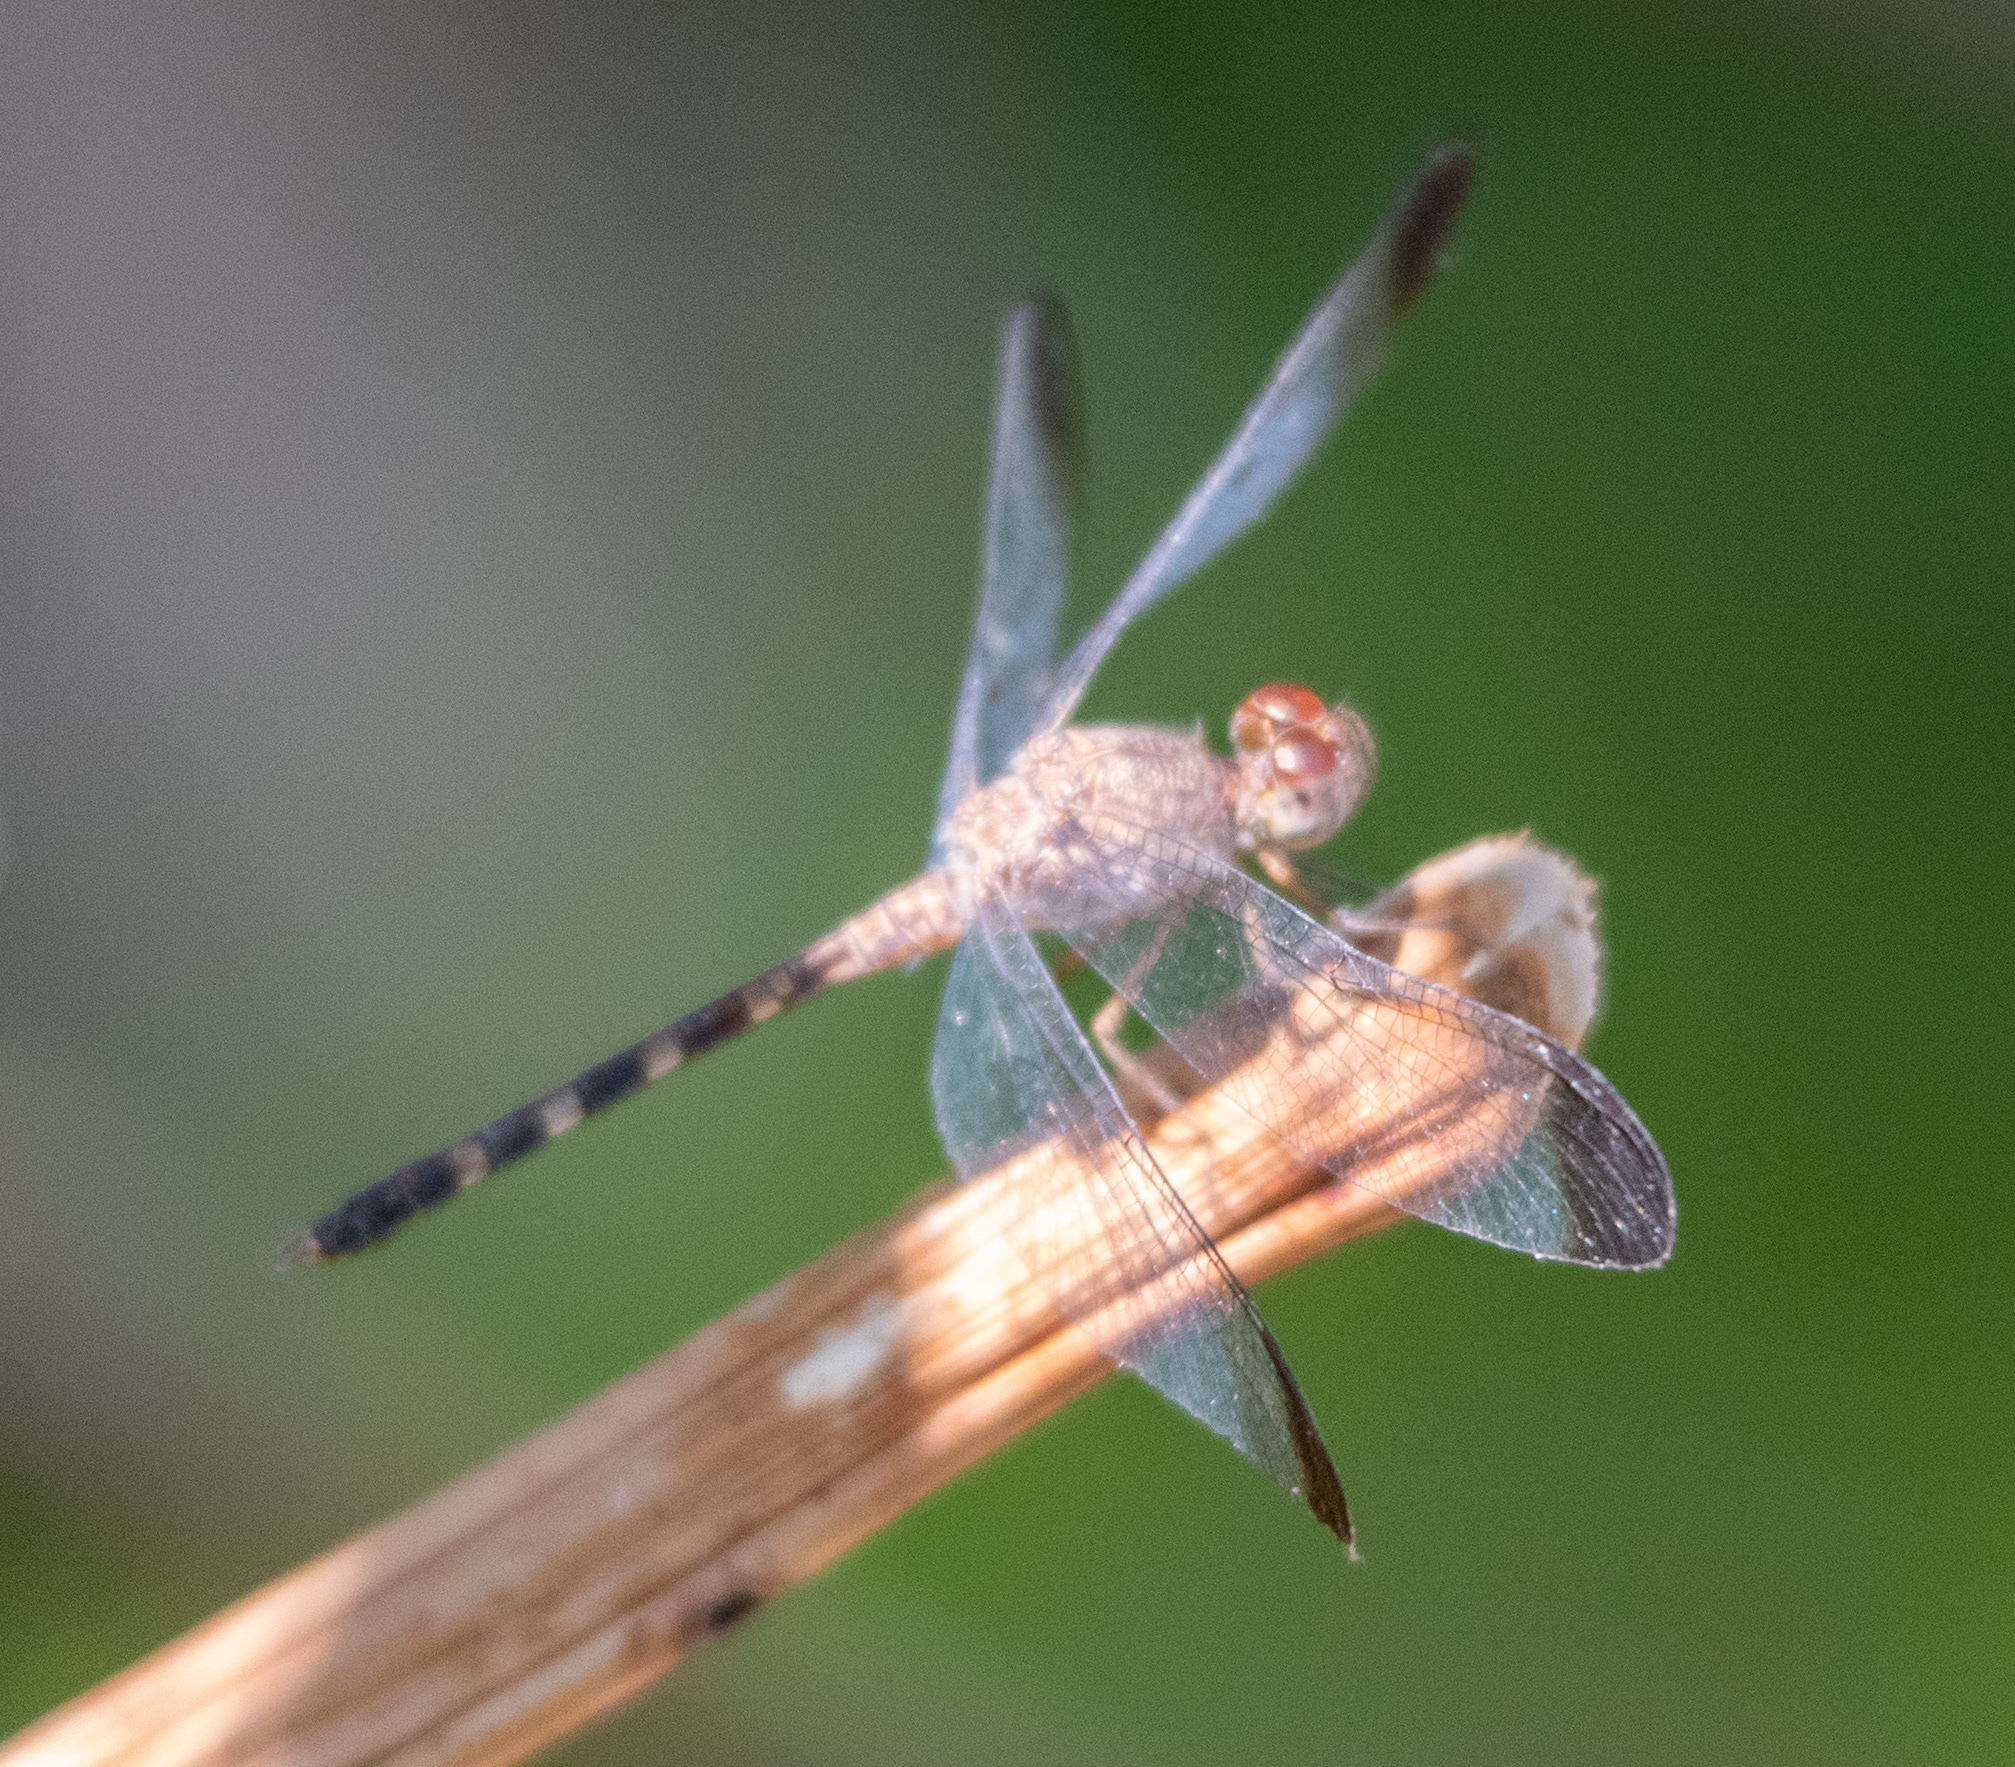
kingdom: Animalia
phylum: Arthropoda
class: Insecta
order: Odonata
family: Libellulidae
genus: Uracis
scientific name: Uracis imbuta
